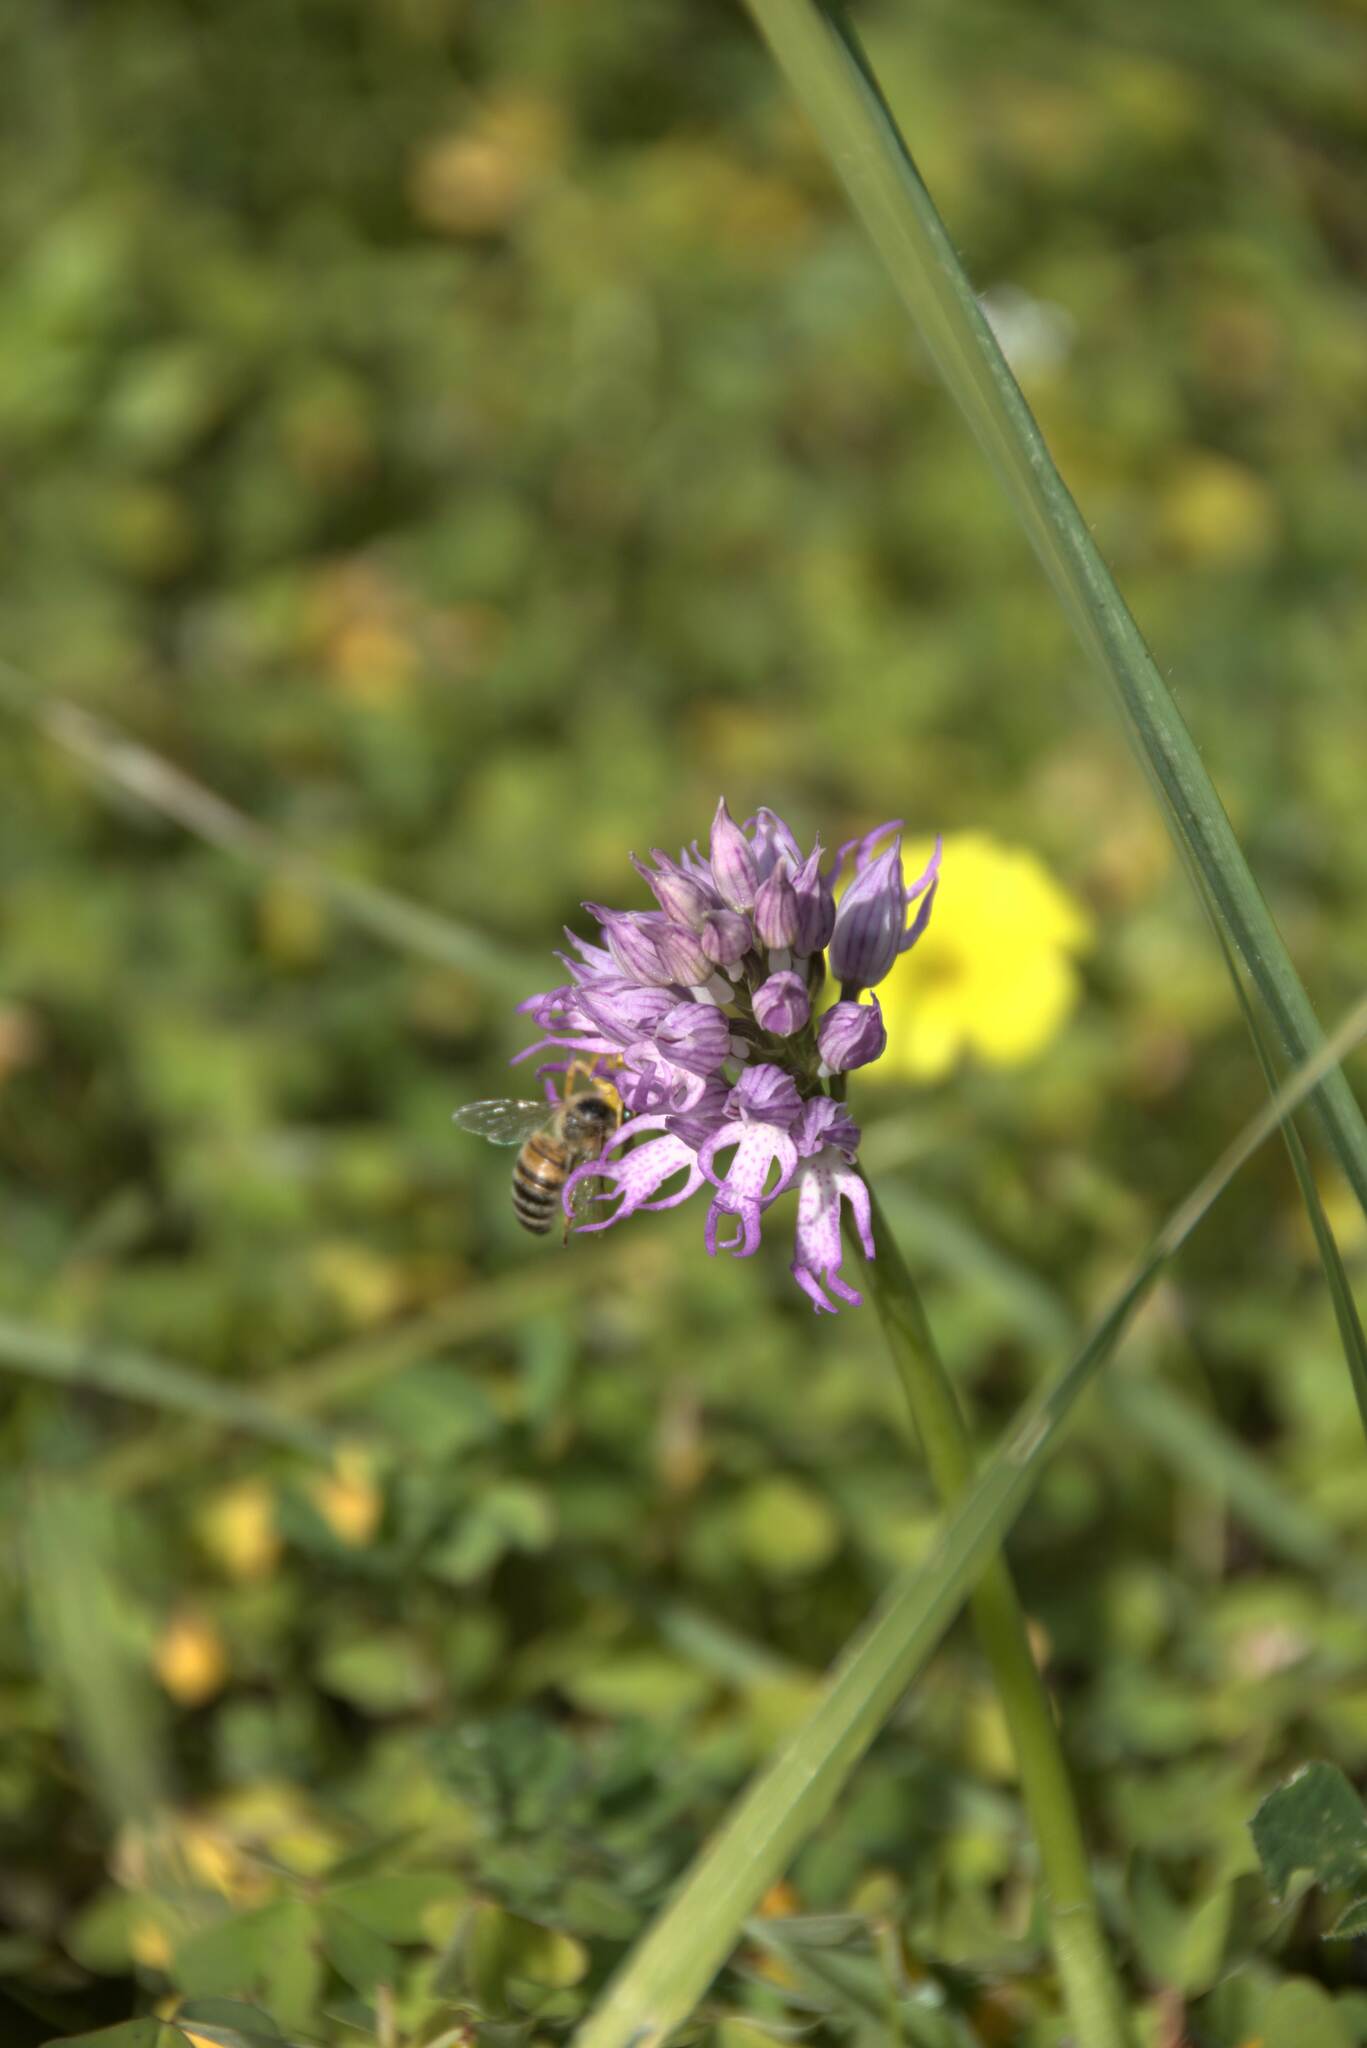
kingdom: Plantae
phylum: Tracheophyta
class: Liliopsida
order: Asparagales
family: Orchidaceae
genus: Orchis
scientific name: Orchis italica
